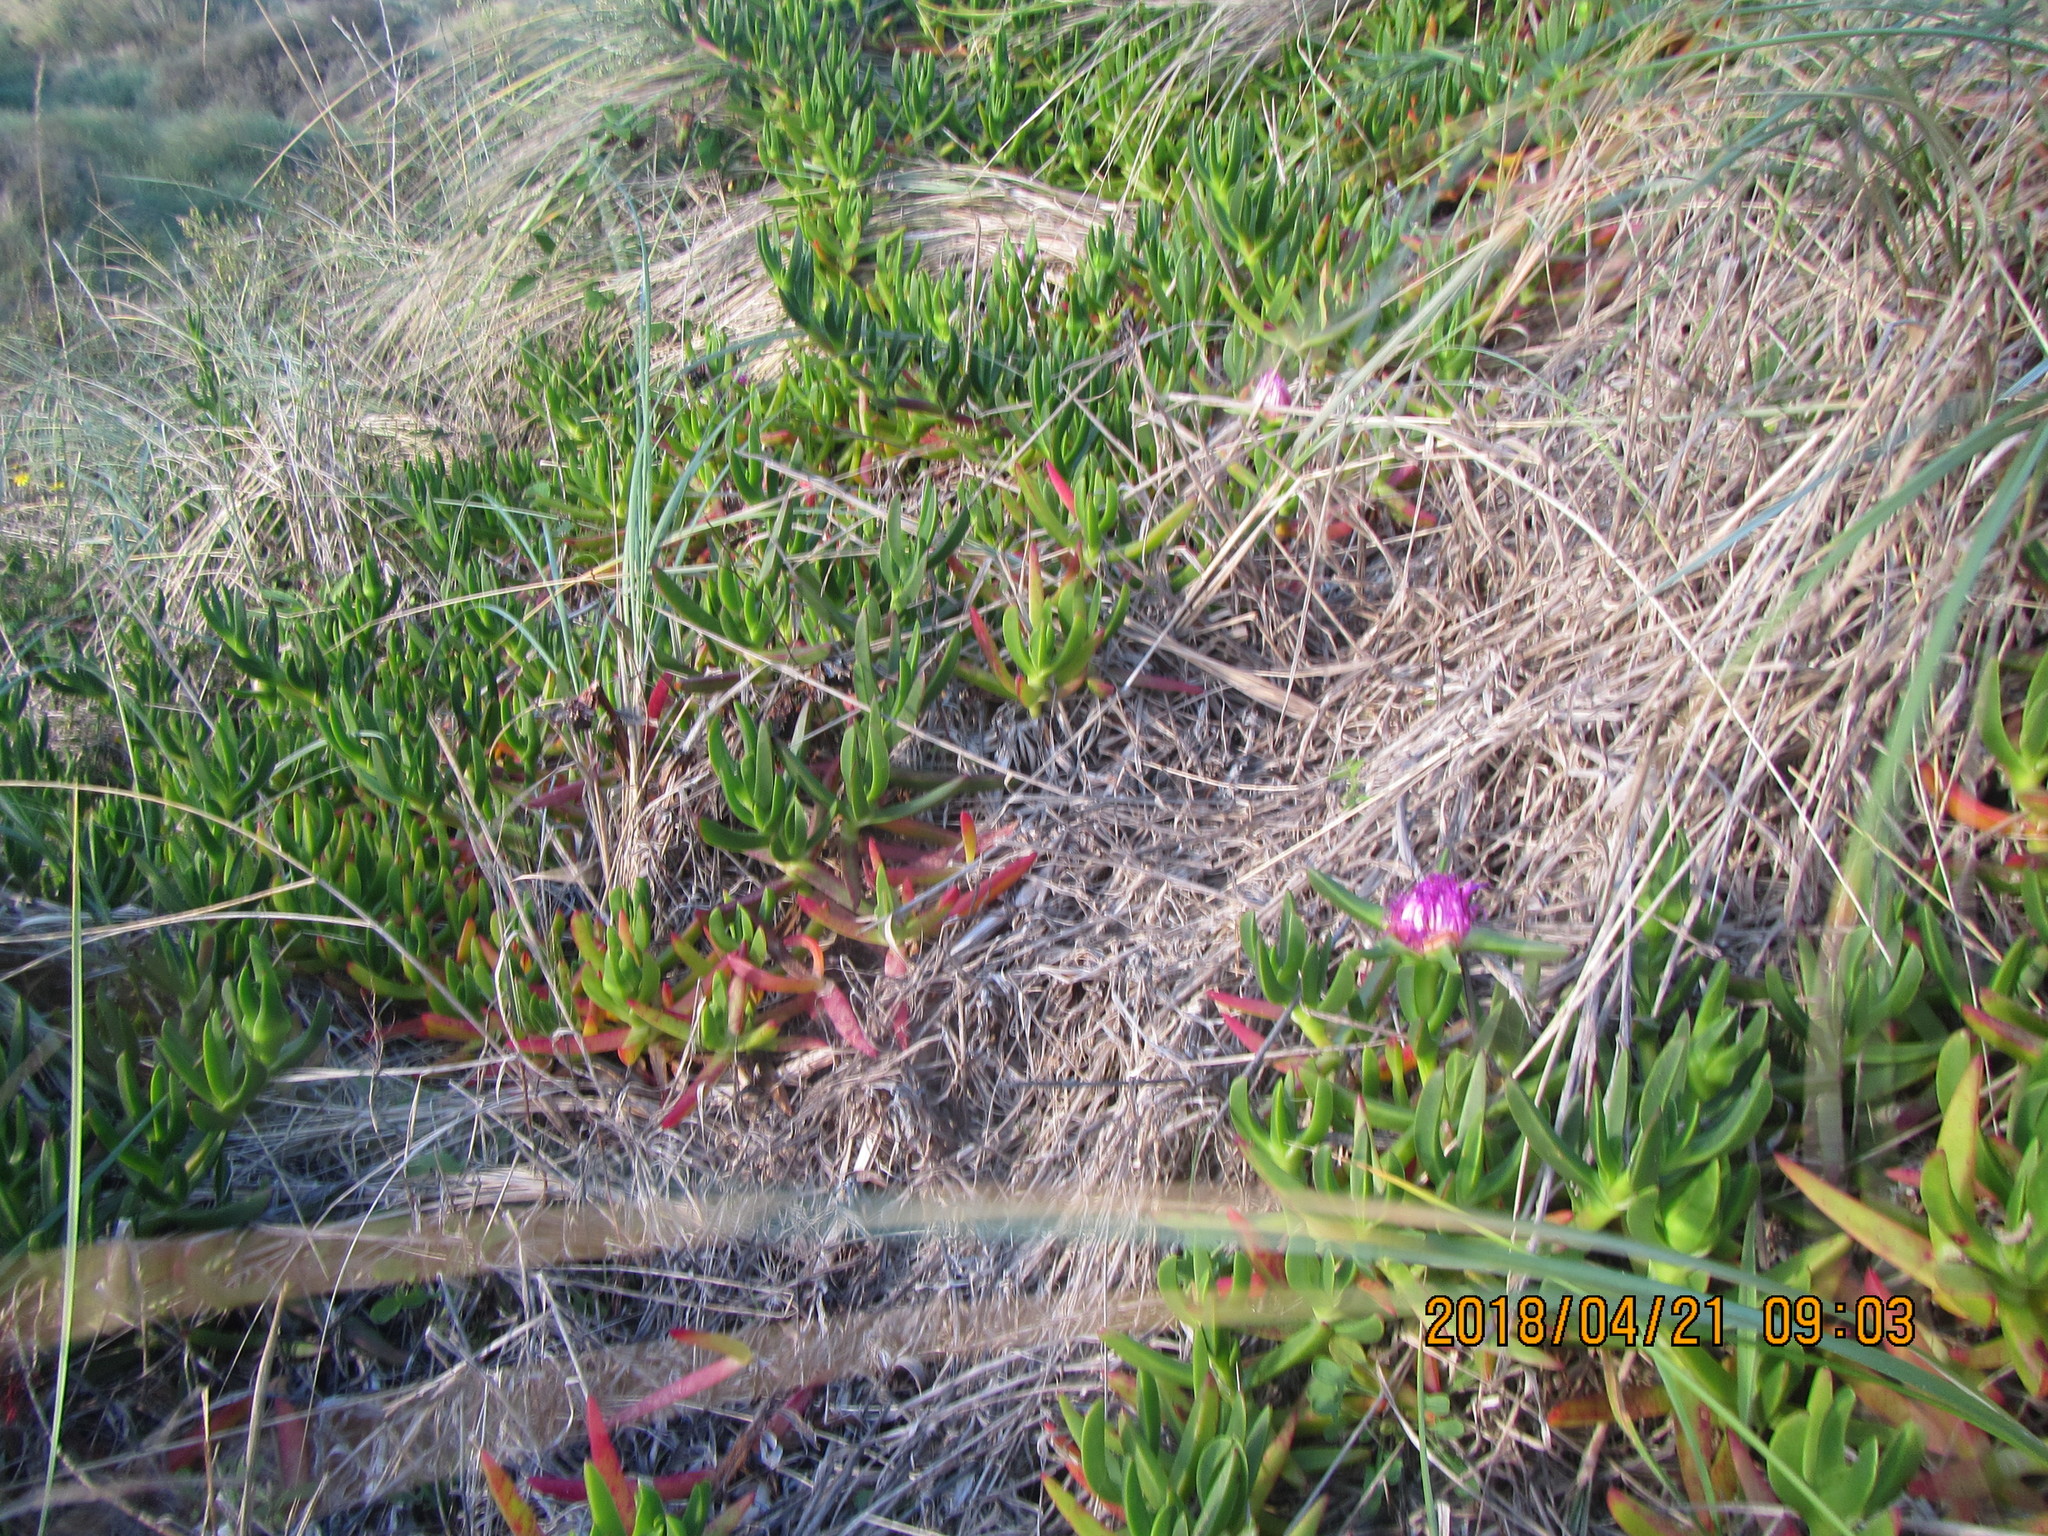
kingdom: Plantae
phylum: Tracheophyta
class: Magnoliopsida
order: Caryophyllales
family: Aizoaceae
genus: Carpobrotus
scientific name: Carpobrotus chilensis
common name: Sea fig
